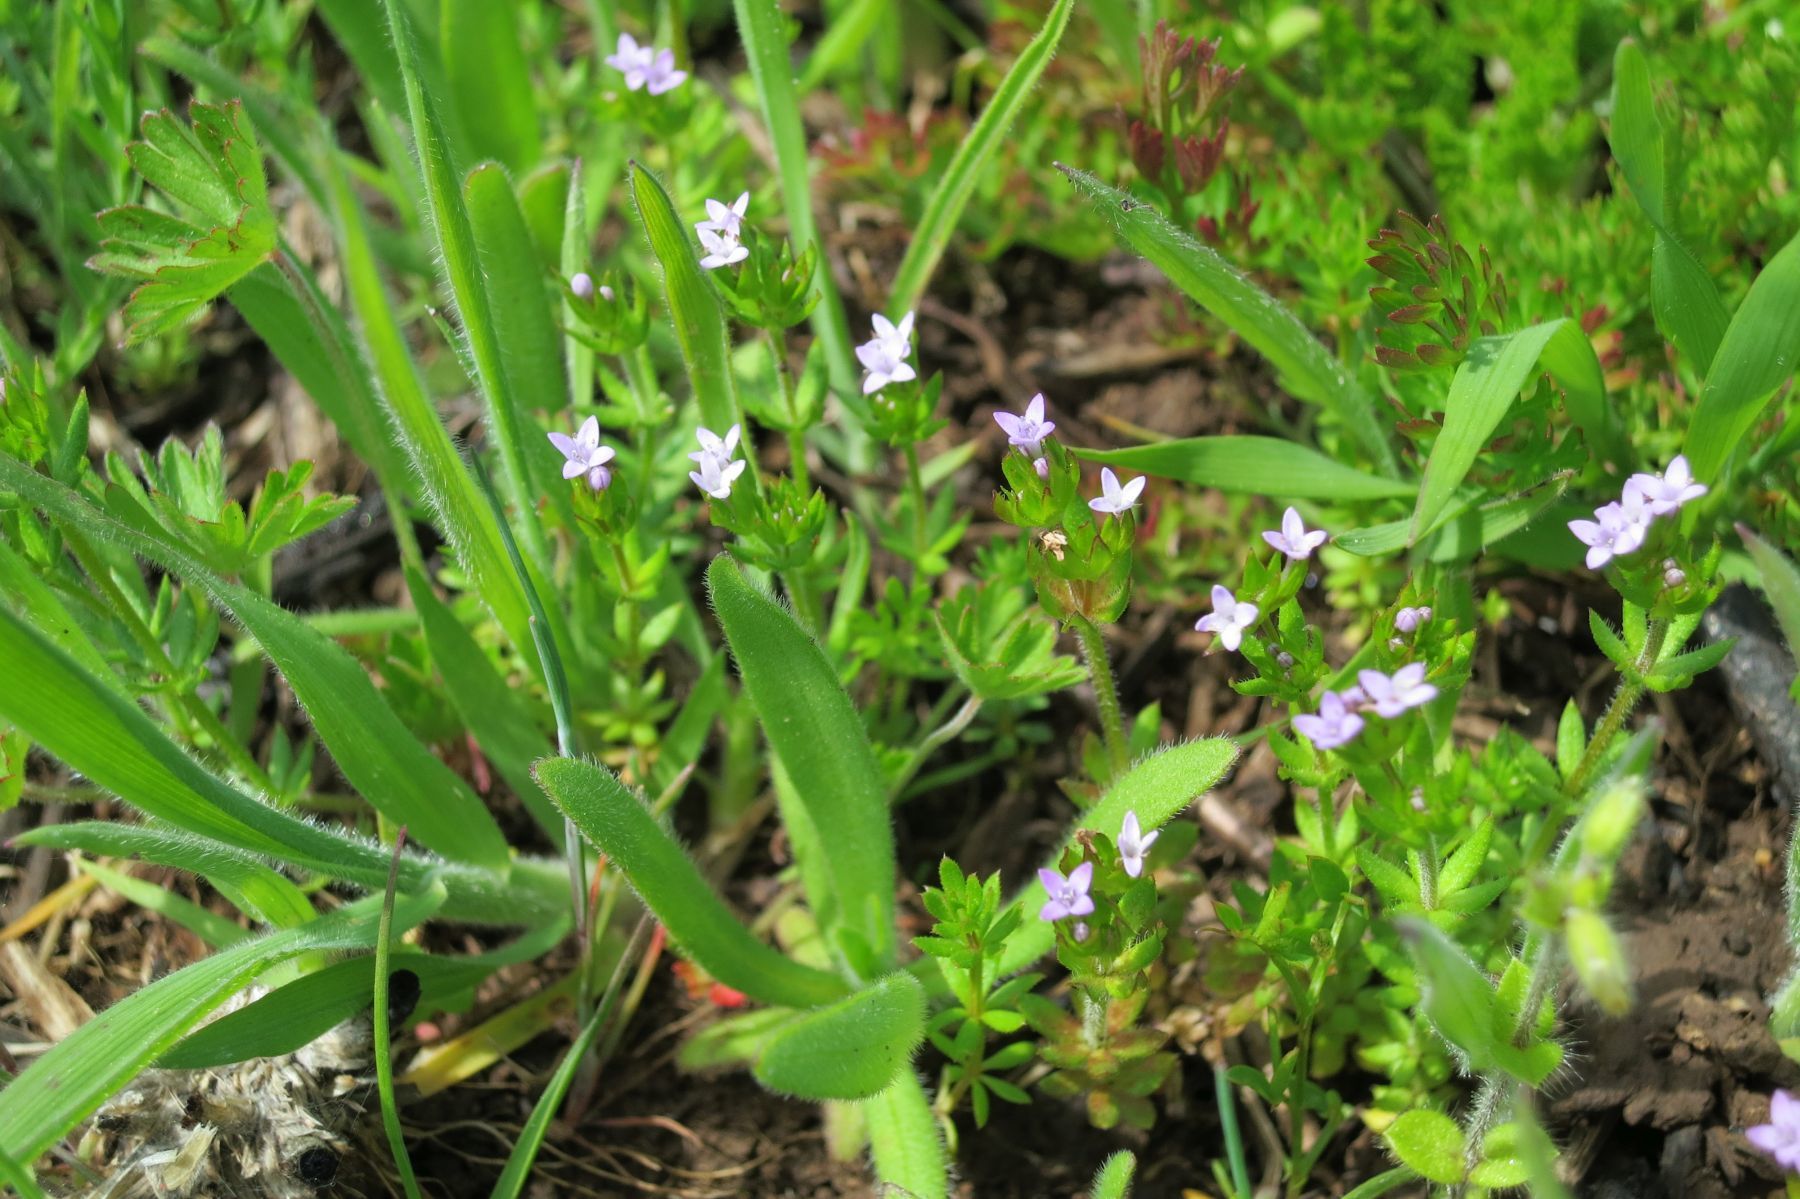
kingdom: Plantae
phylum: Tracheophyta
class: Magnoliopsida
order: Gentianales
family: Rubiaceae
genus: Sherardia
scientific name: Sherardia arvensis
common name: Field madder
